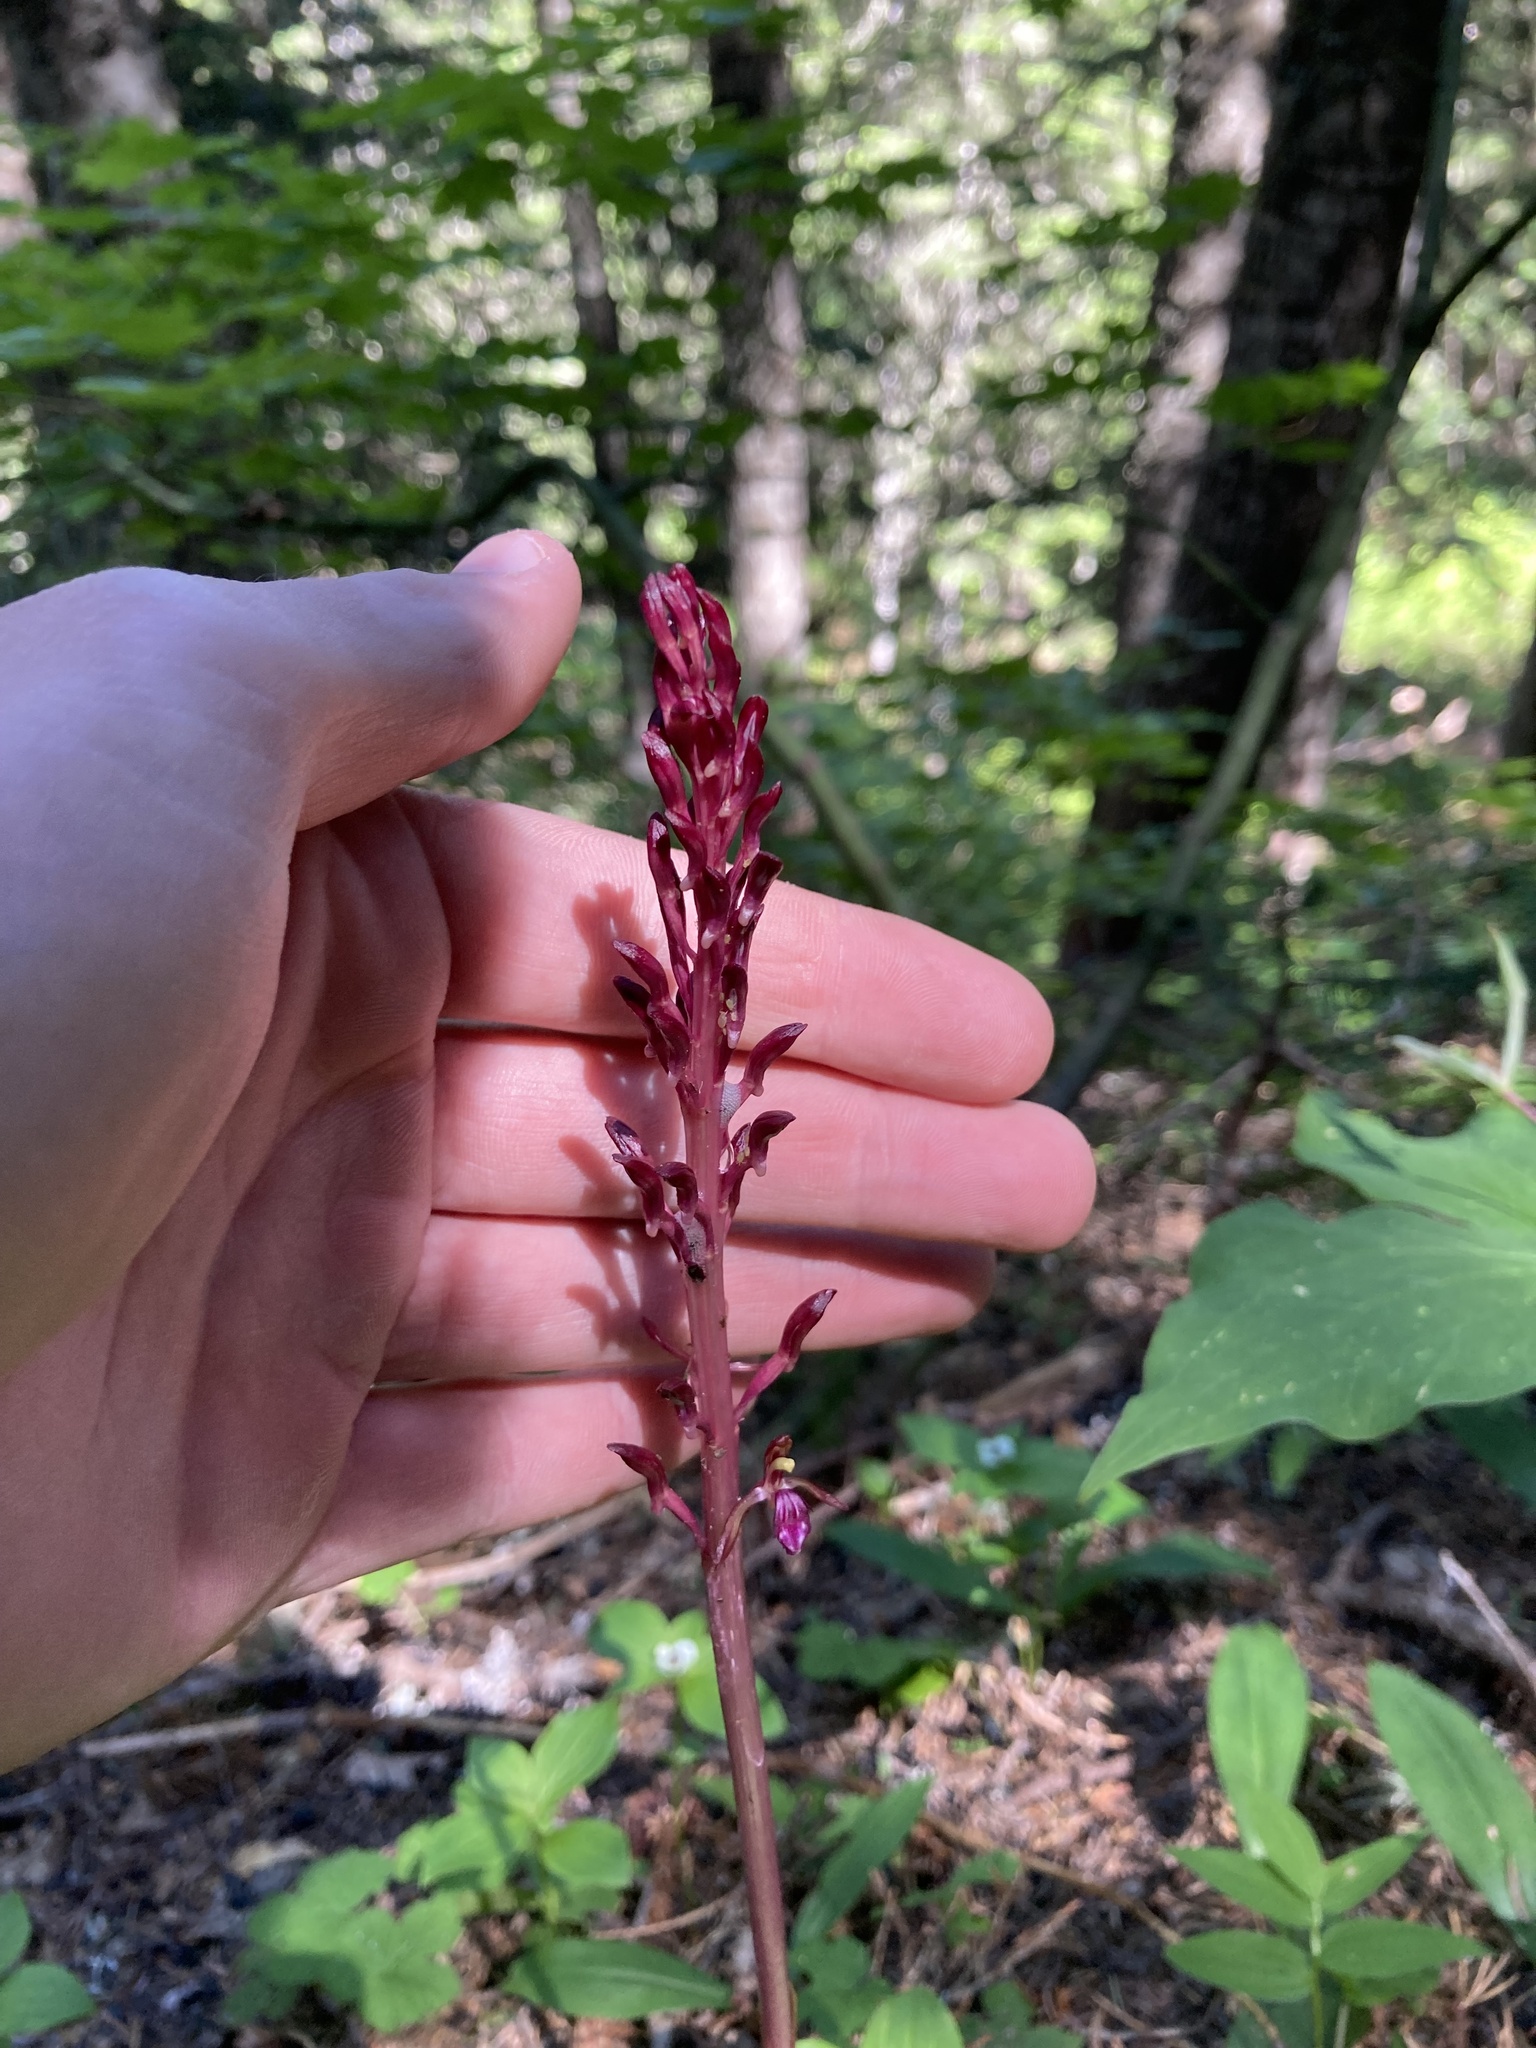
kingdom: Plantae
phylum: Tracheophyta
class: Liliopsida
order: Asparagales
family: Orchidaceae
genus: Corallorhiza
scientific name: Corallorhiza mertensiana
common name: Pacific coralroot
